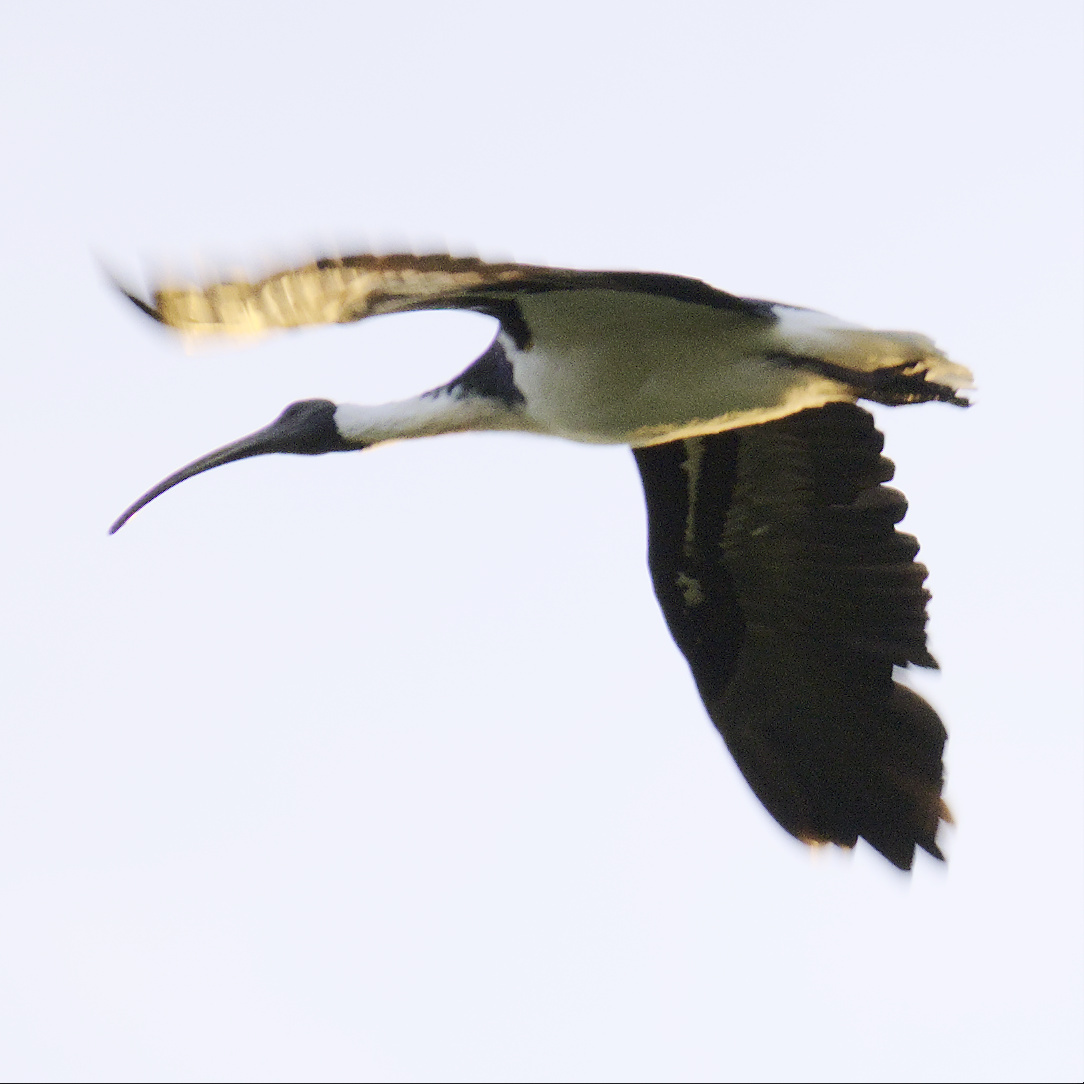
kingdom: Animalia
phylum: Chordata
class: Aves
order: Pelecaniformes
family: Threskiornithidae
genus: Threskiornis
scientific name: Threskiornis spinicollis
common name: Straw-necked ibis
